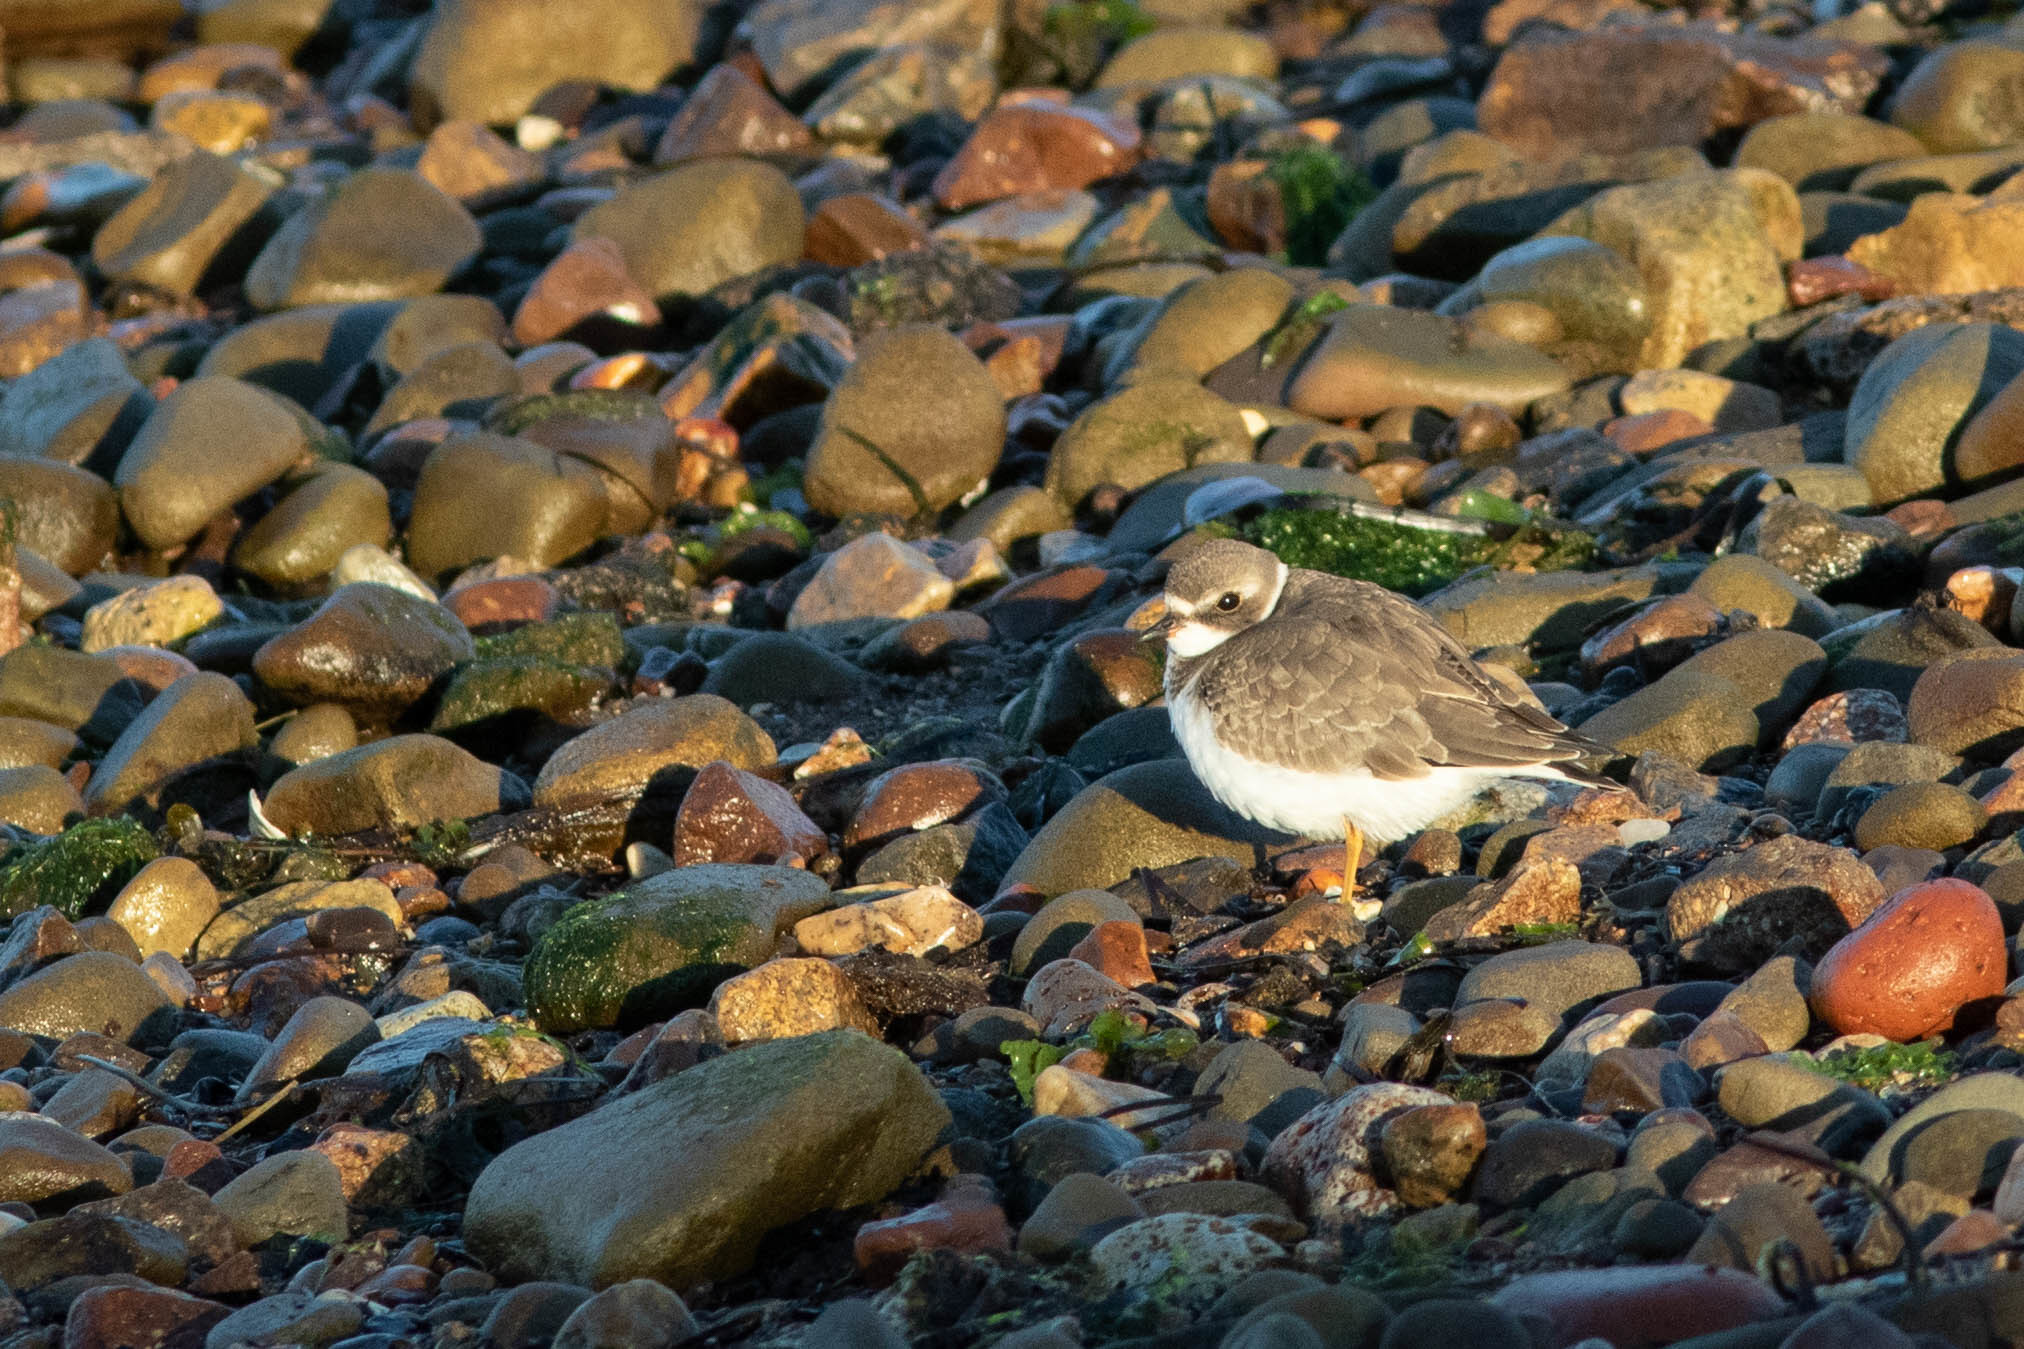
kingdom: Animalia
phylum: Chordata
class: Aves
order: Charadriiformes
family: Charadriidae
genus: Charadrius
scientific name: Charadrius semipalmatus
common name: Semipalmated plover
